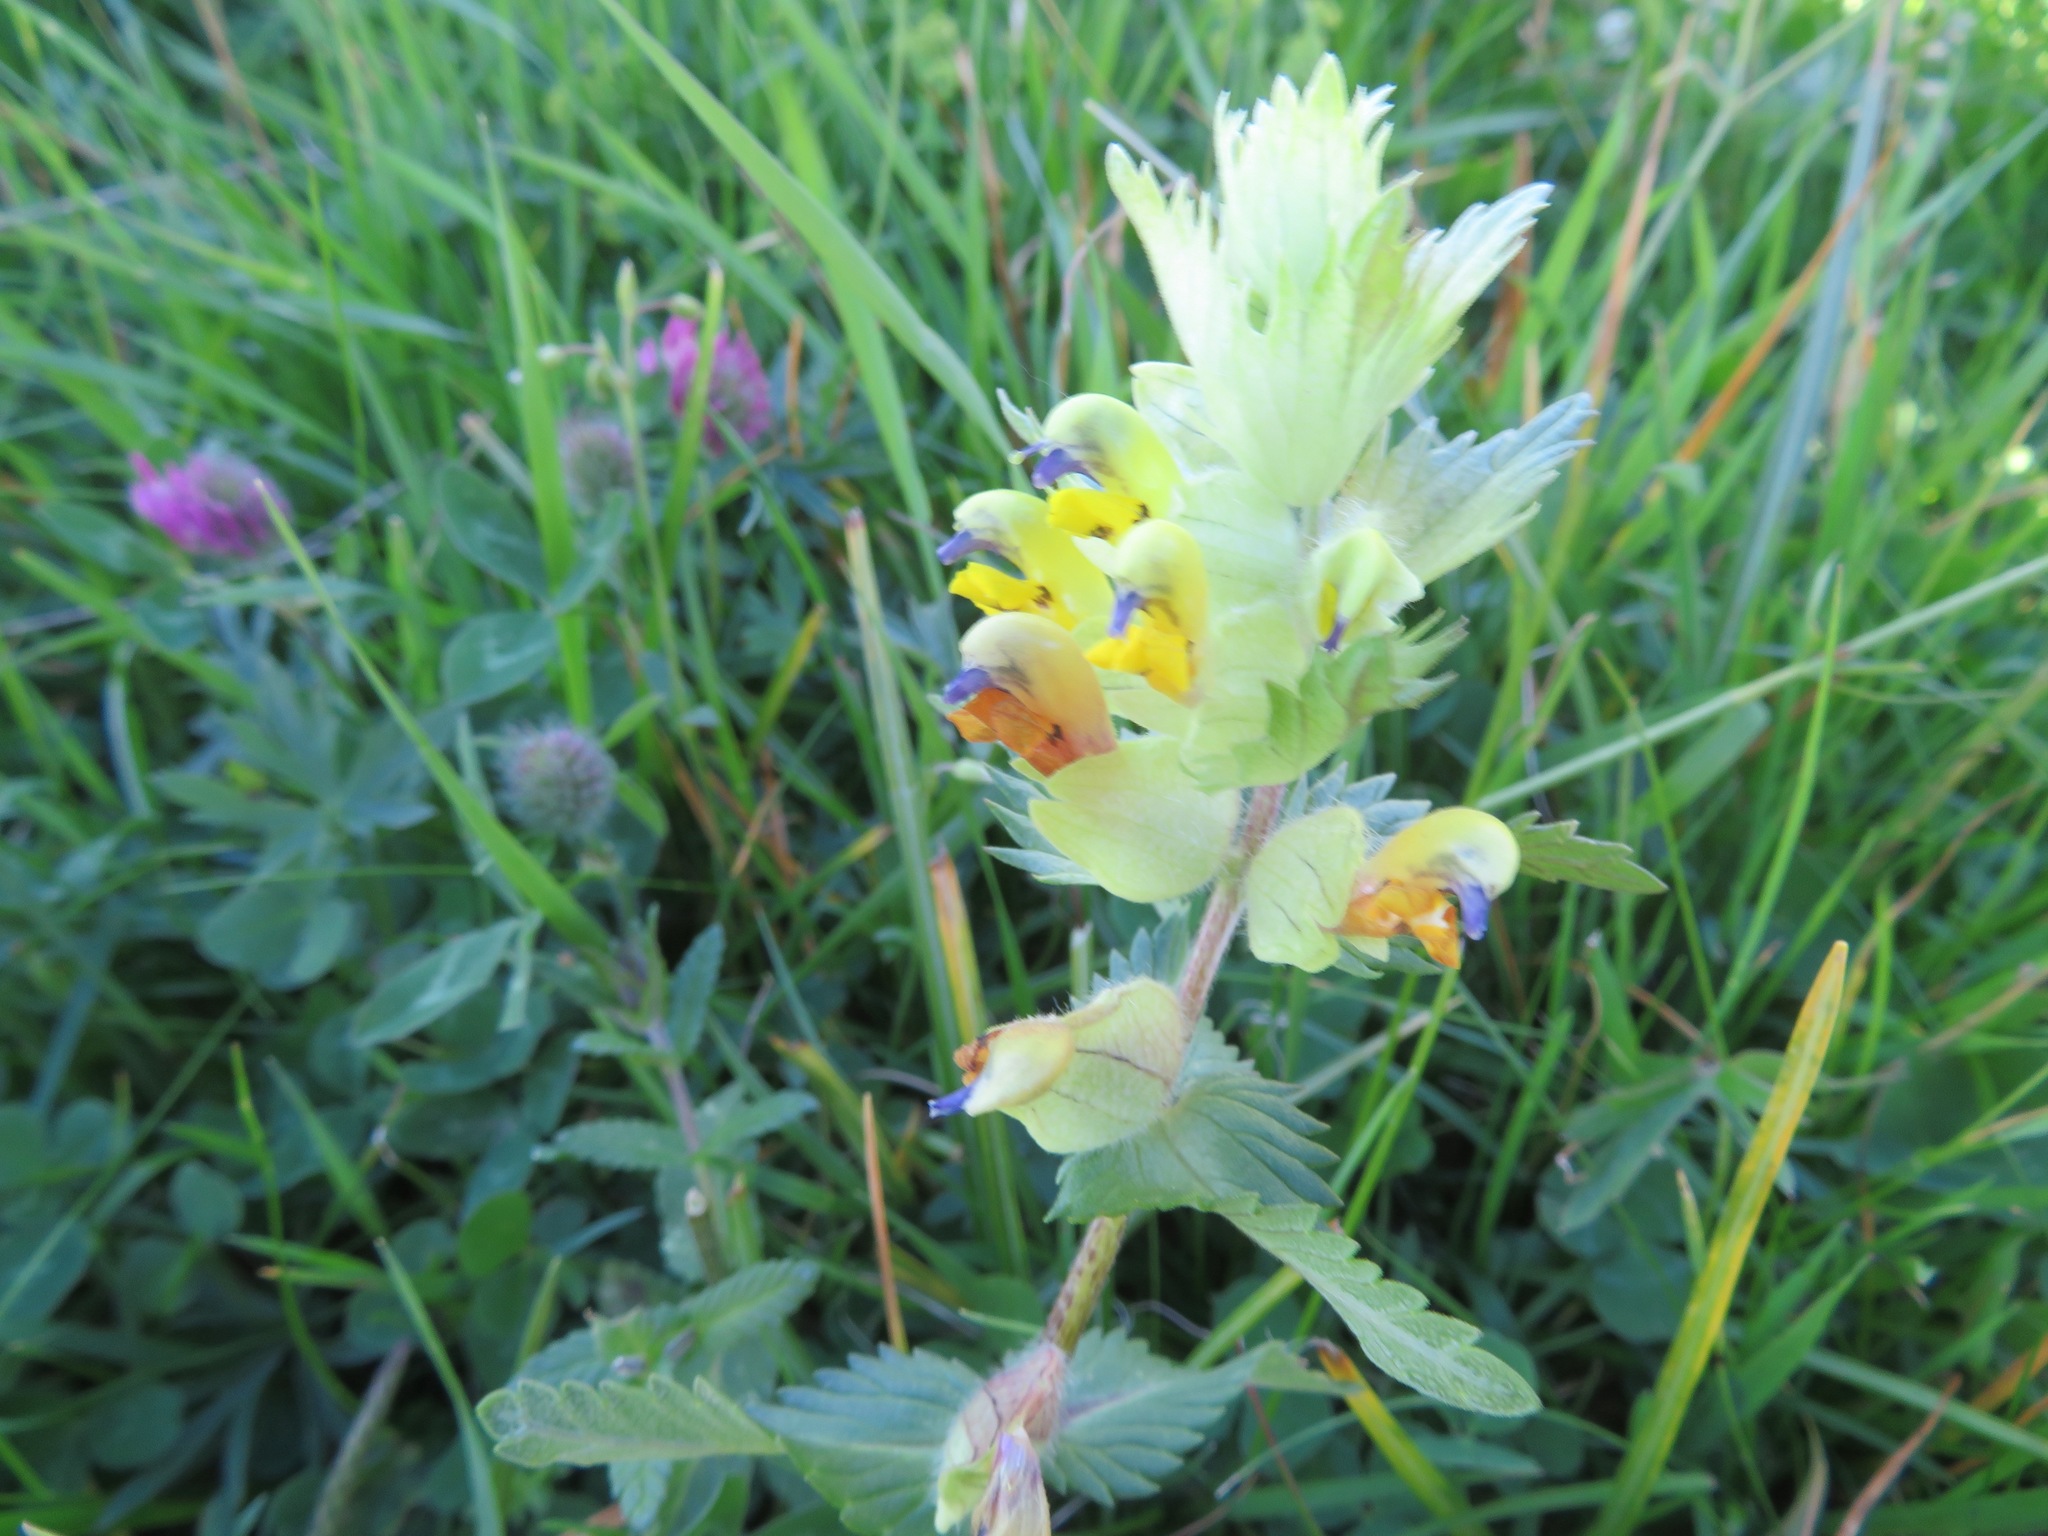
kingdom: Plantae
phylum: Tracheophyta
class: Magnoliopsida
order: Lamiales
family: Orobanchaceae
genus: Rhinanthus
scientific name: Rhinanthus alectorolophus
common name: Greater yellow-rattle
